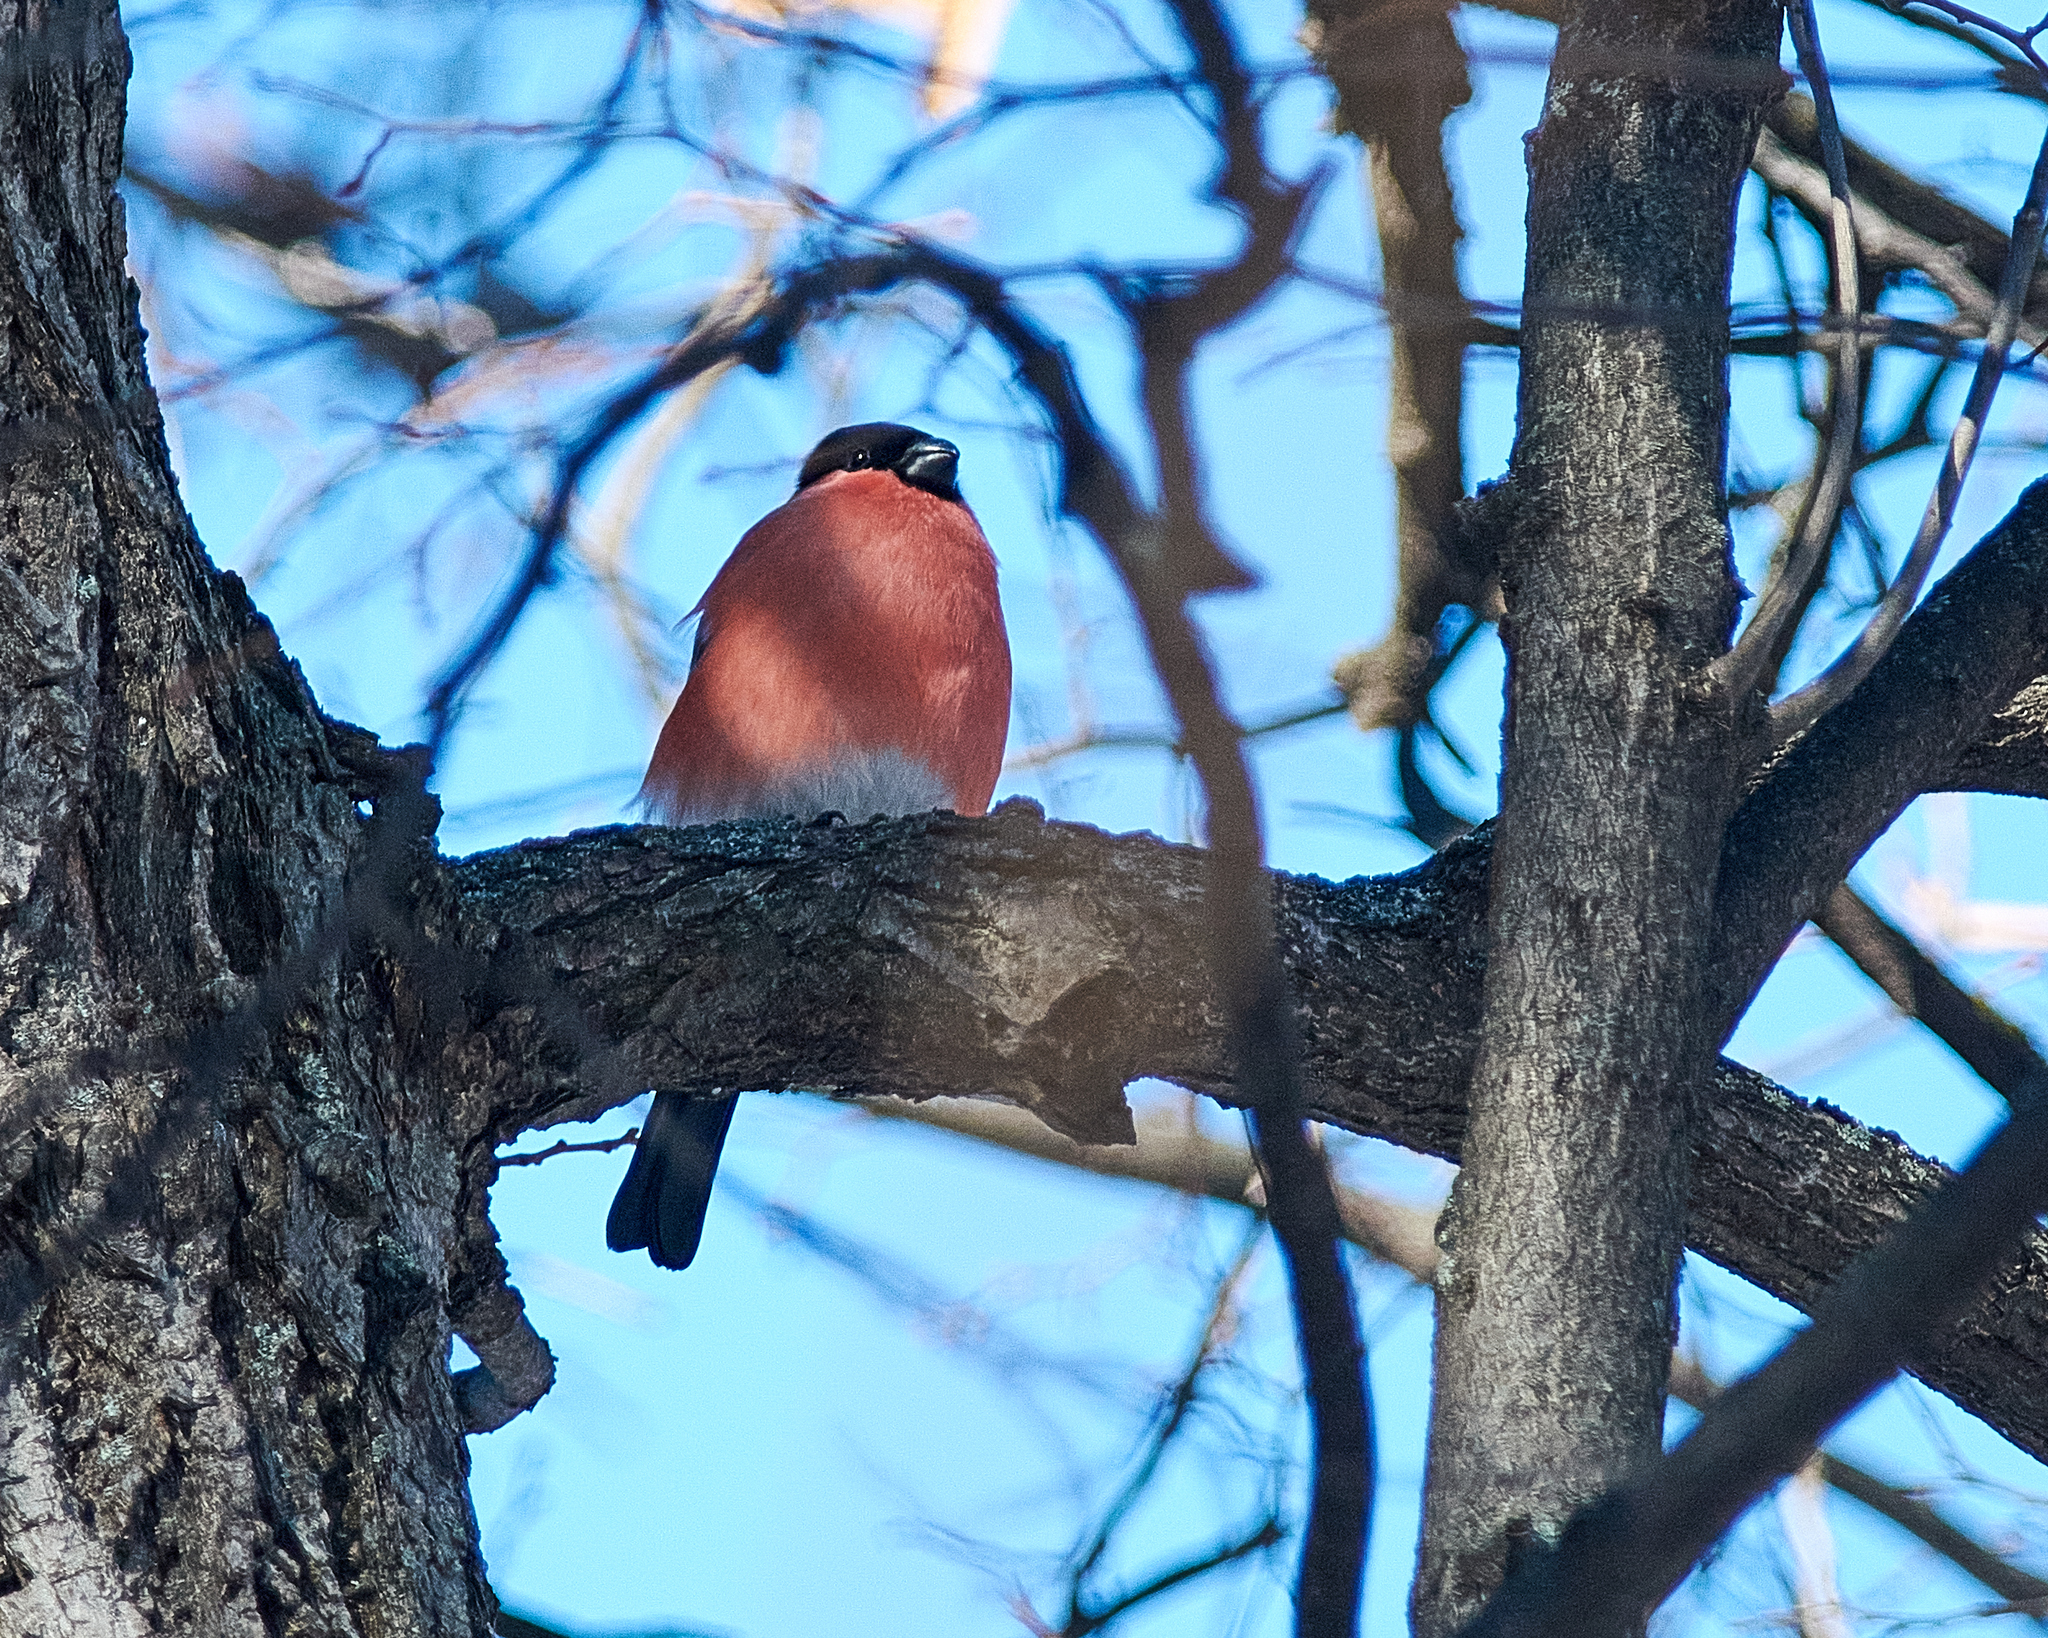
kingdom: Animalia
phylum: Chordata
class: Aves
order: Passeriformes
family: Fringillidae
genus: Pyrrhula
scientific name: Pyrrhula pyrrhula
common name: Eurasian bullfinch
